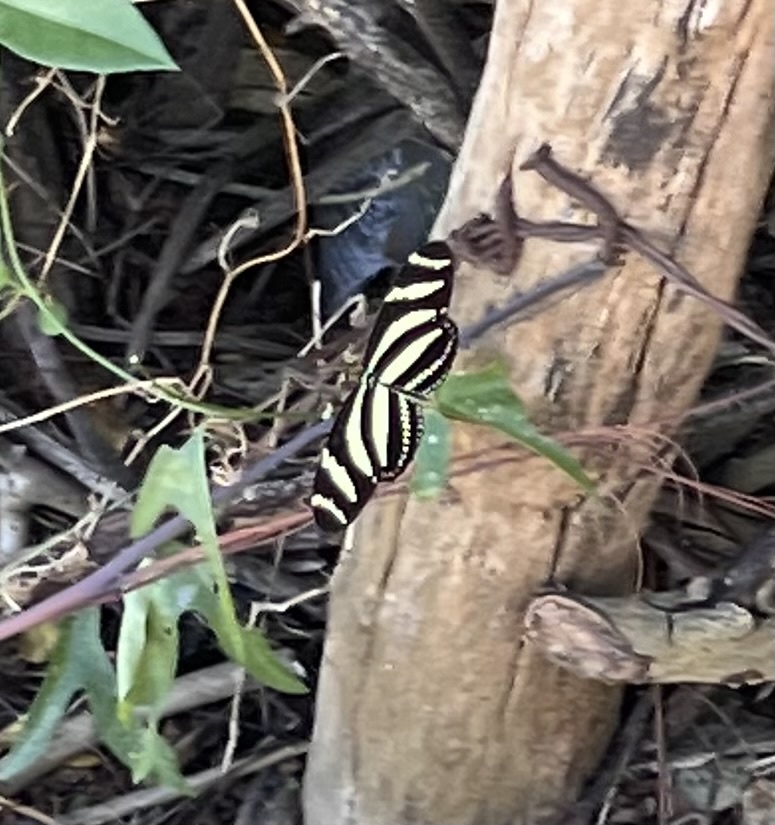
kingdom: Animalia
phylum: Arthropoda
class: Insecta
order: Lepidoptera
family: Nymphalidae
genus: Heliconius
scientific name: Heliconius charithonia
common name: Zebra long wing
